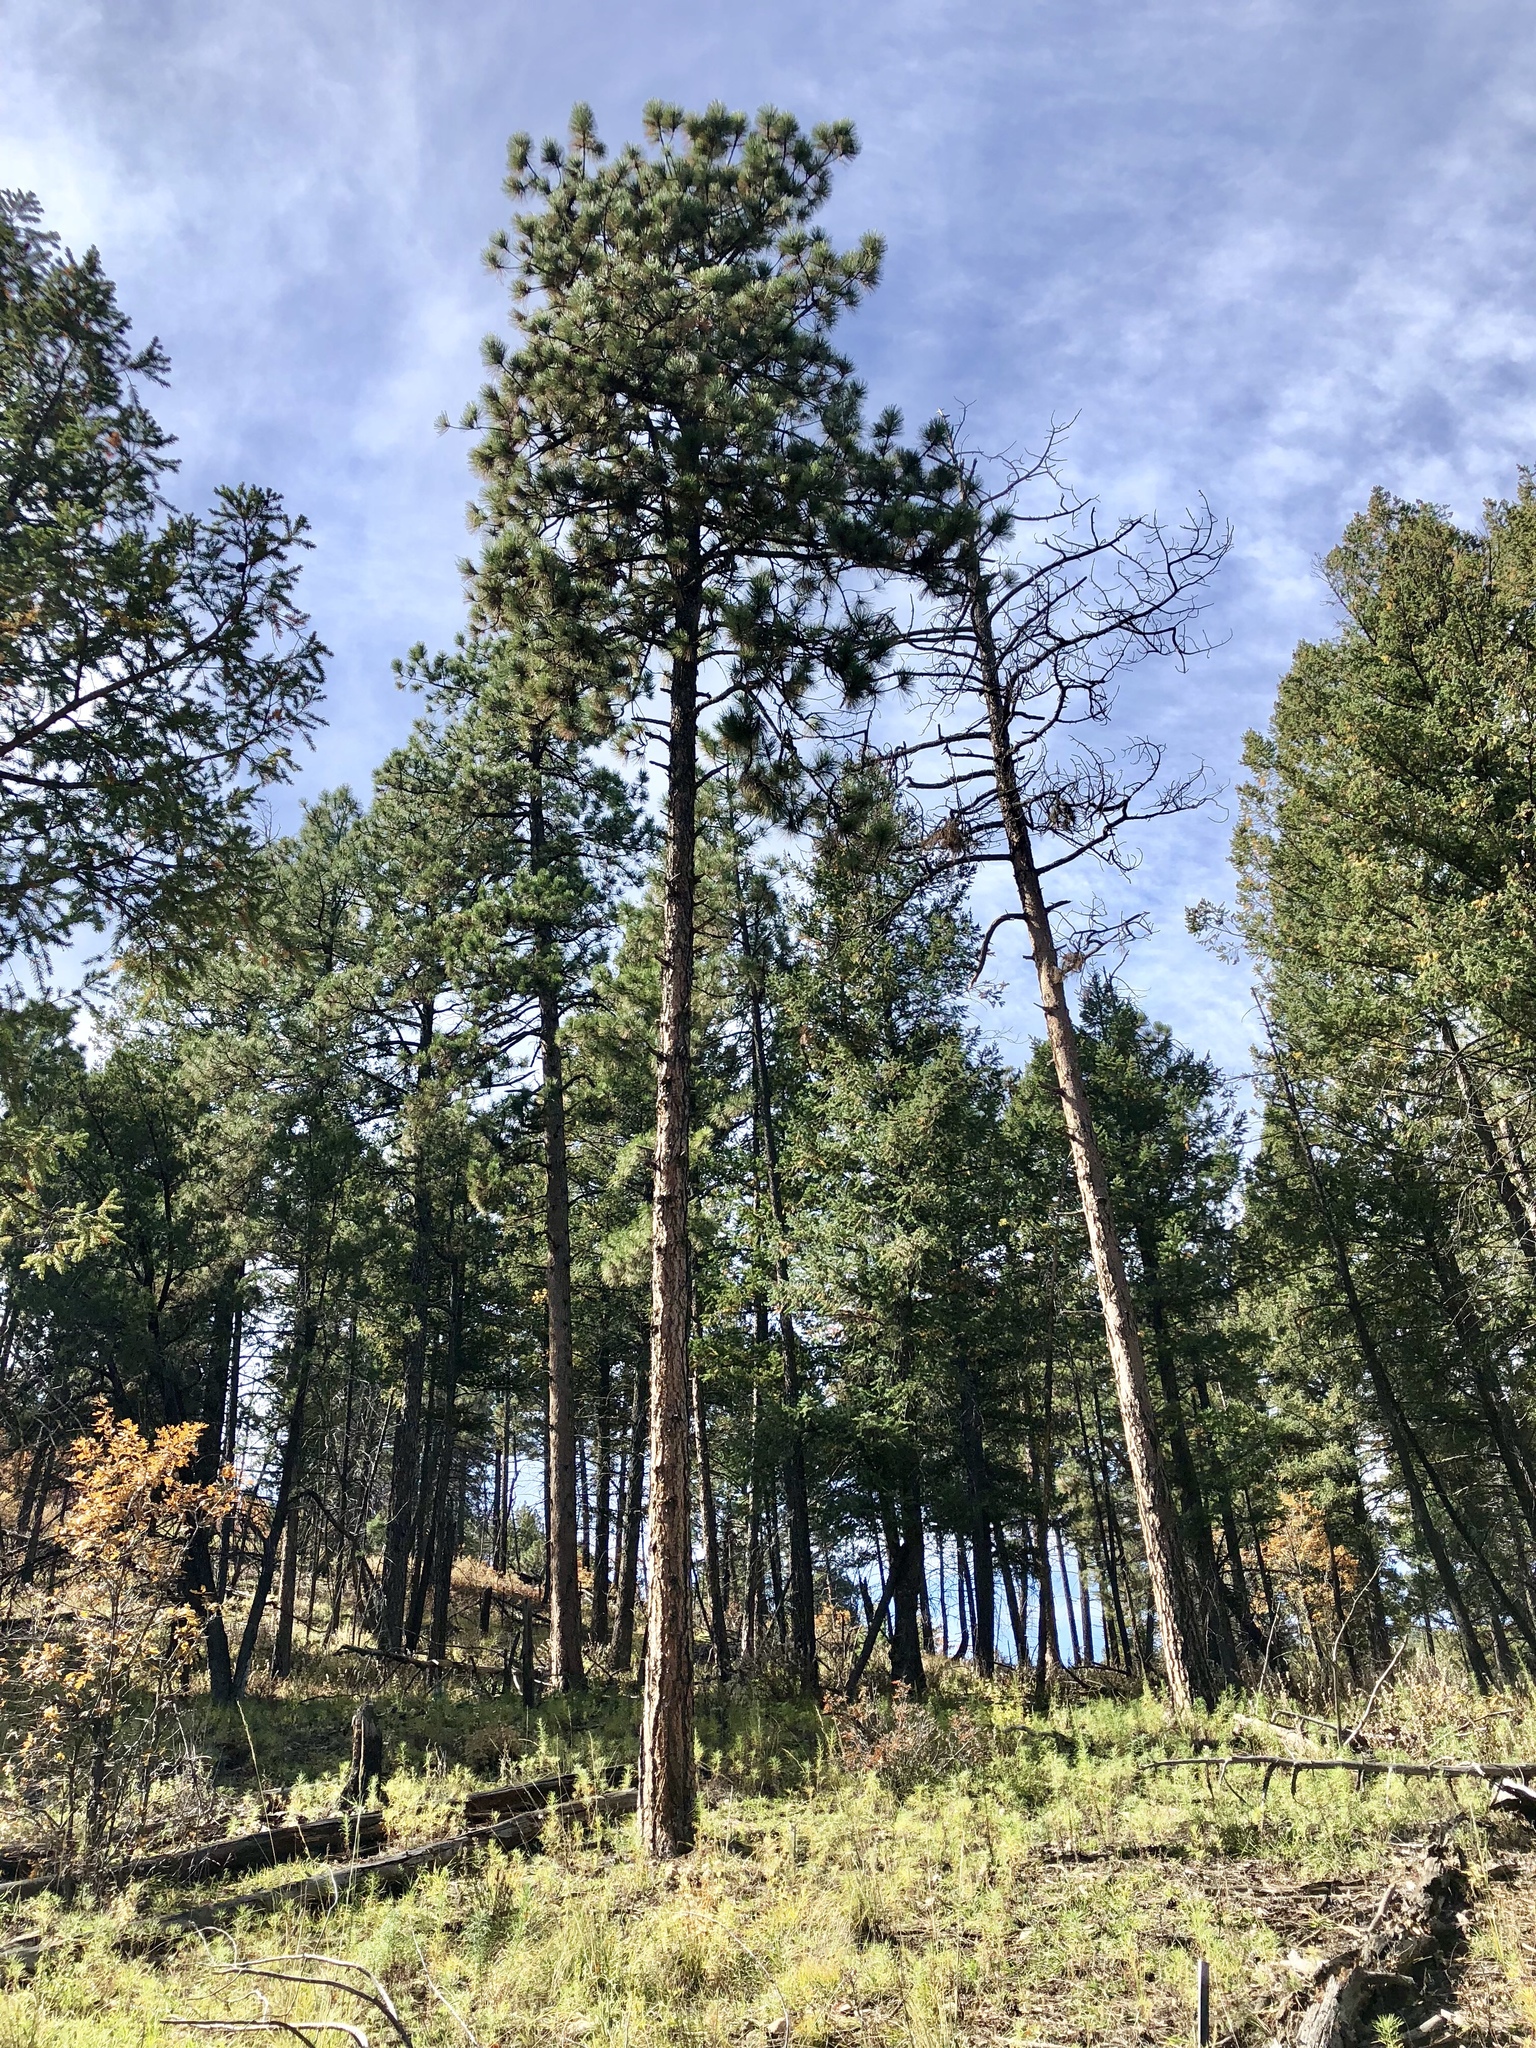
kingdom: Plantae
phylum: Tracheophyta
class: Pinopsida
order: Pinales
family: Pinaceae
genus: Pinus
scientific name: Pinus ponderosa
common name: Western yellow-pine
